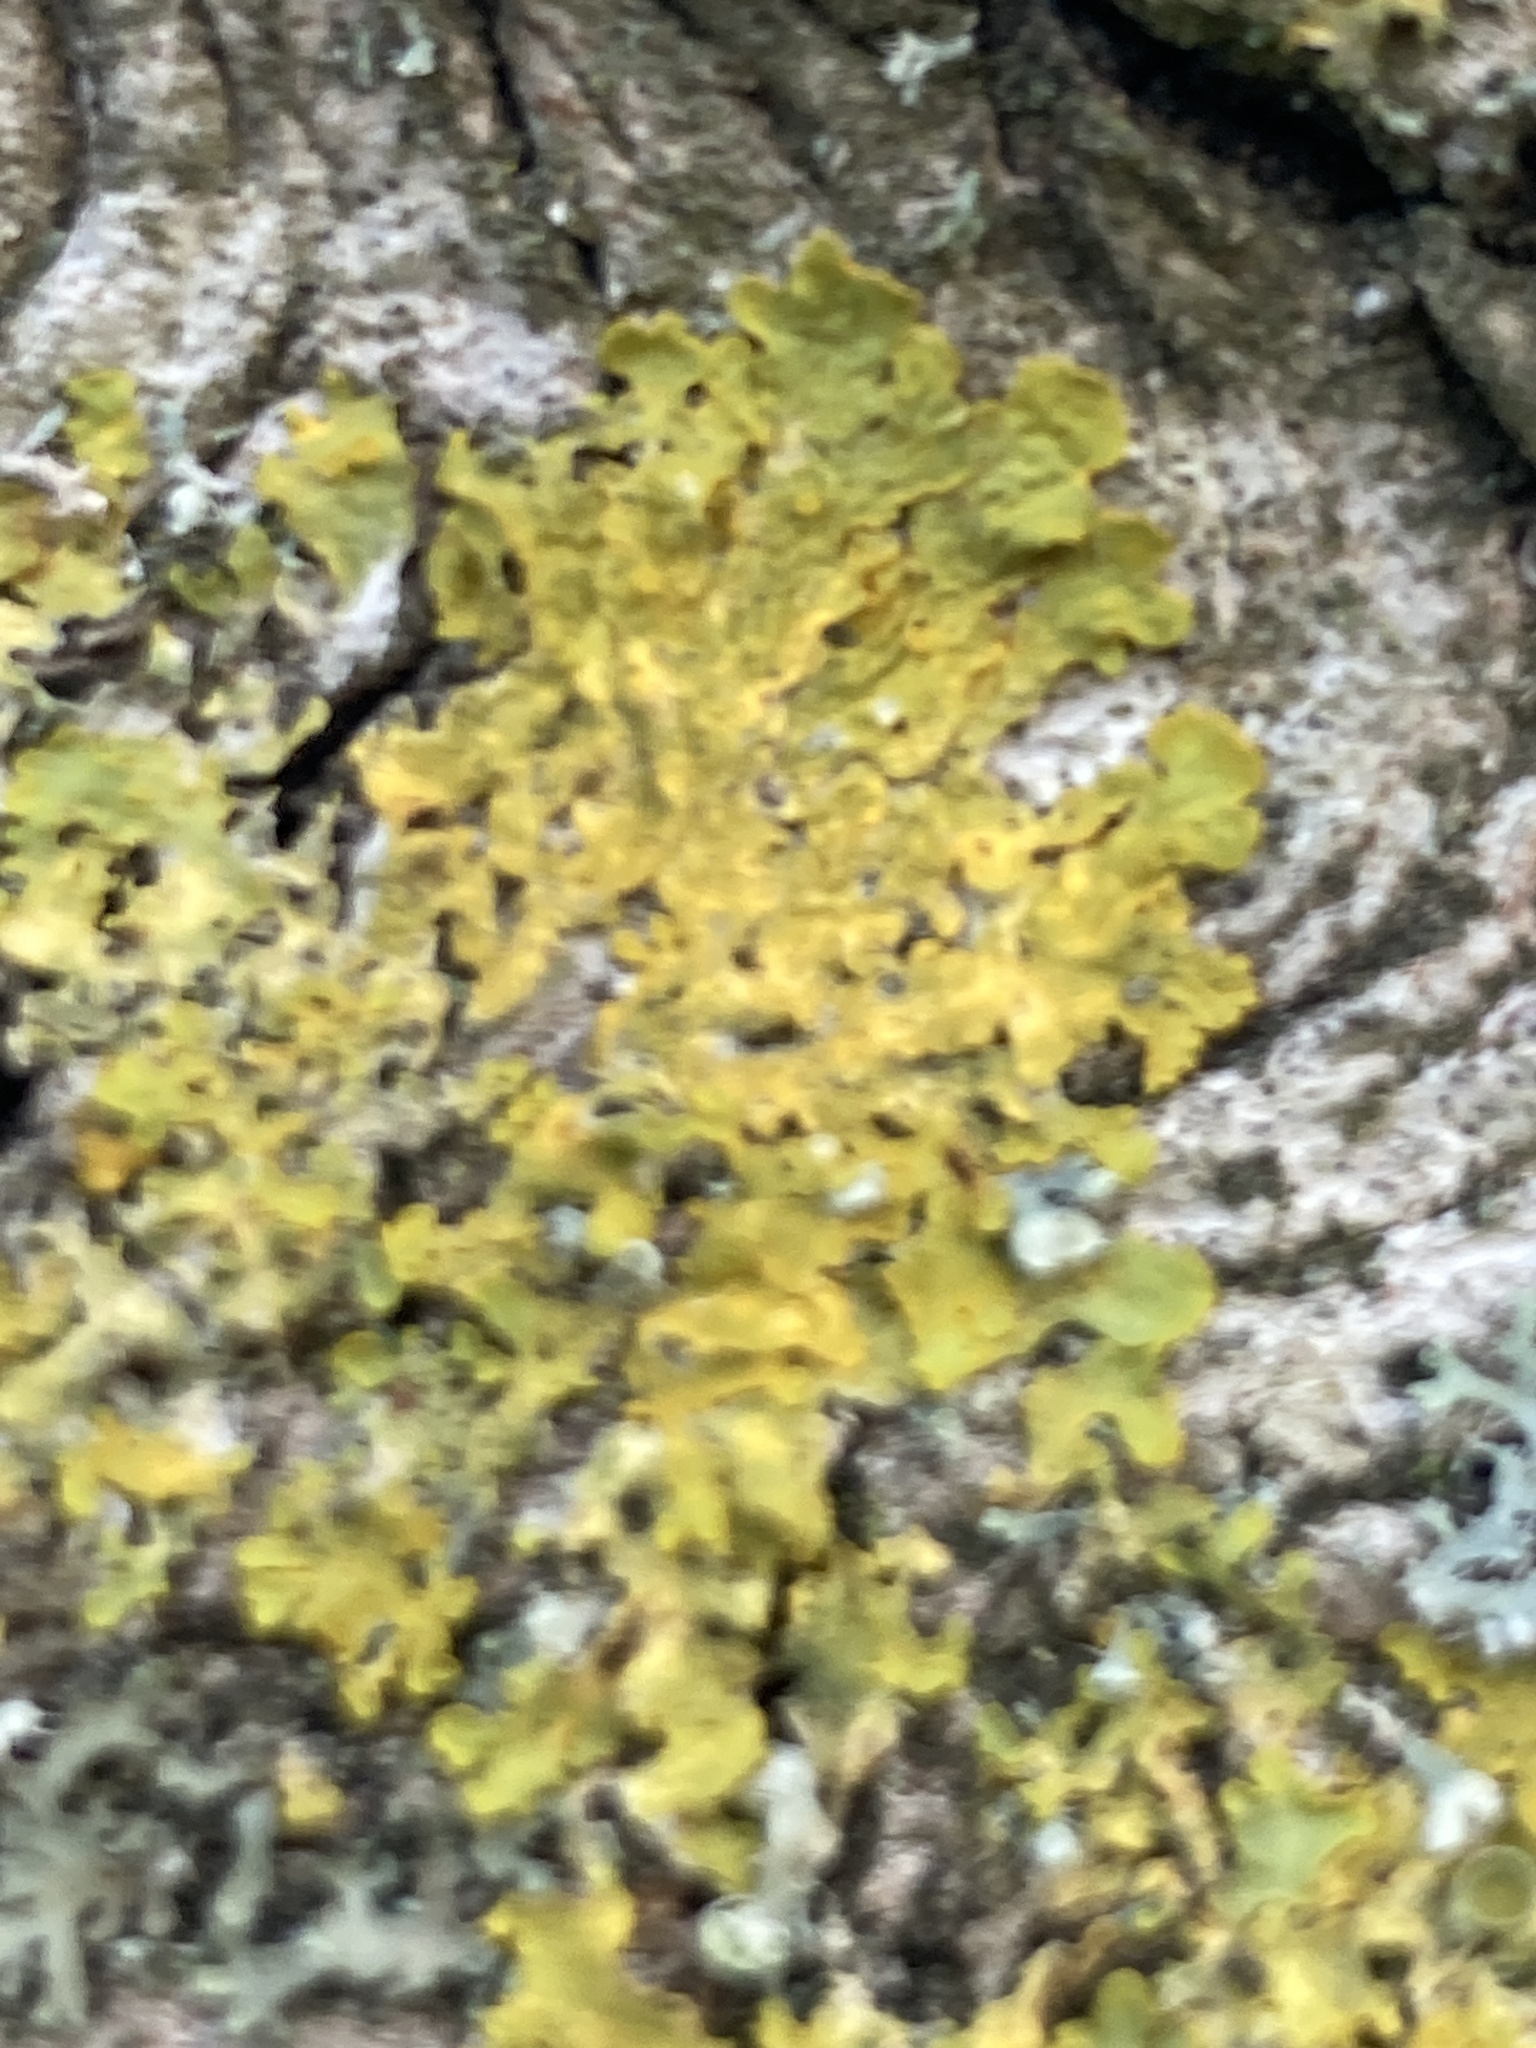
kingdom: Fungi
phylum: Ascomycota
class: Lecanoromycetes
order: Teloschistales
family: Teloschistaceae
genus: Xanthoria
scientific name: Xanthoria parietina
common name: Common orange lichen
